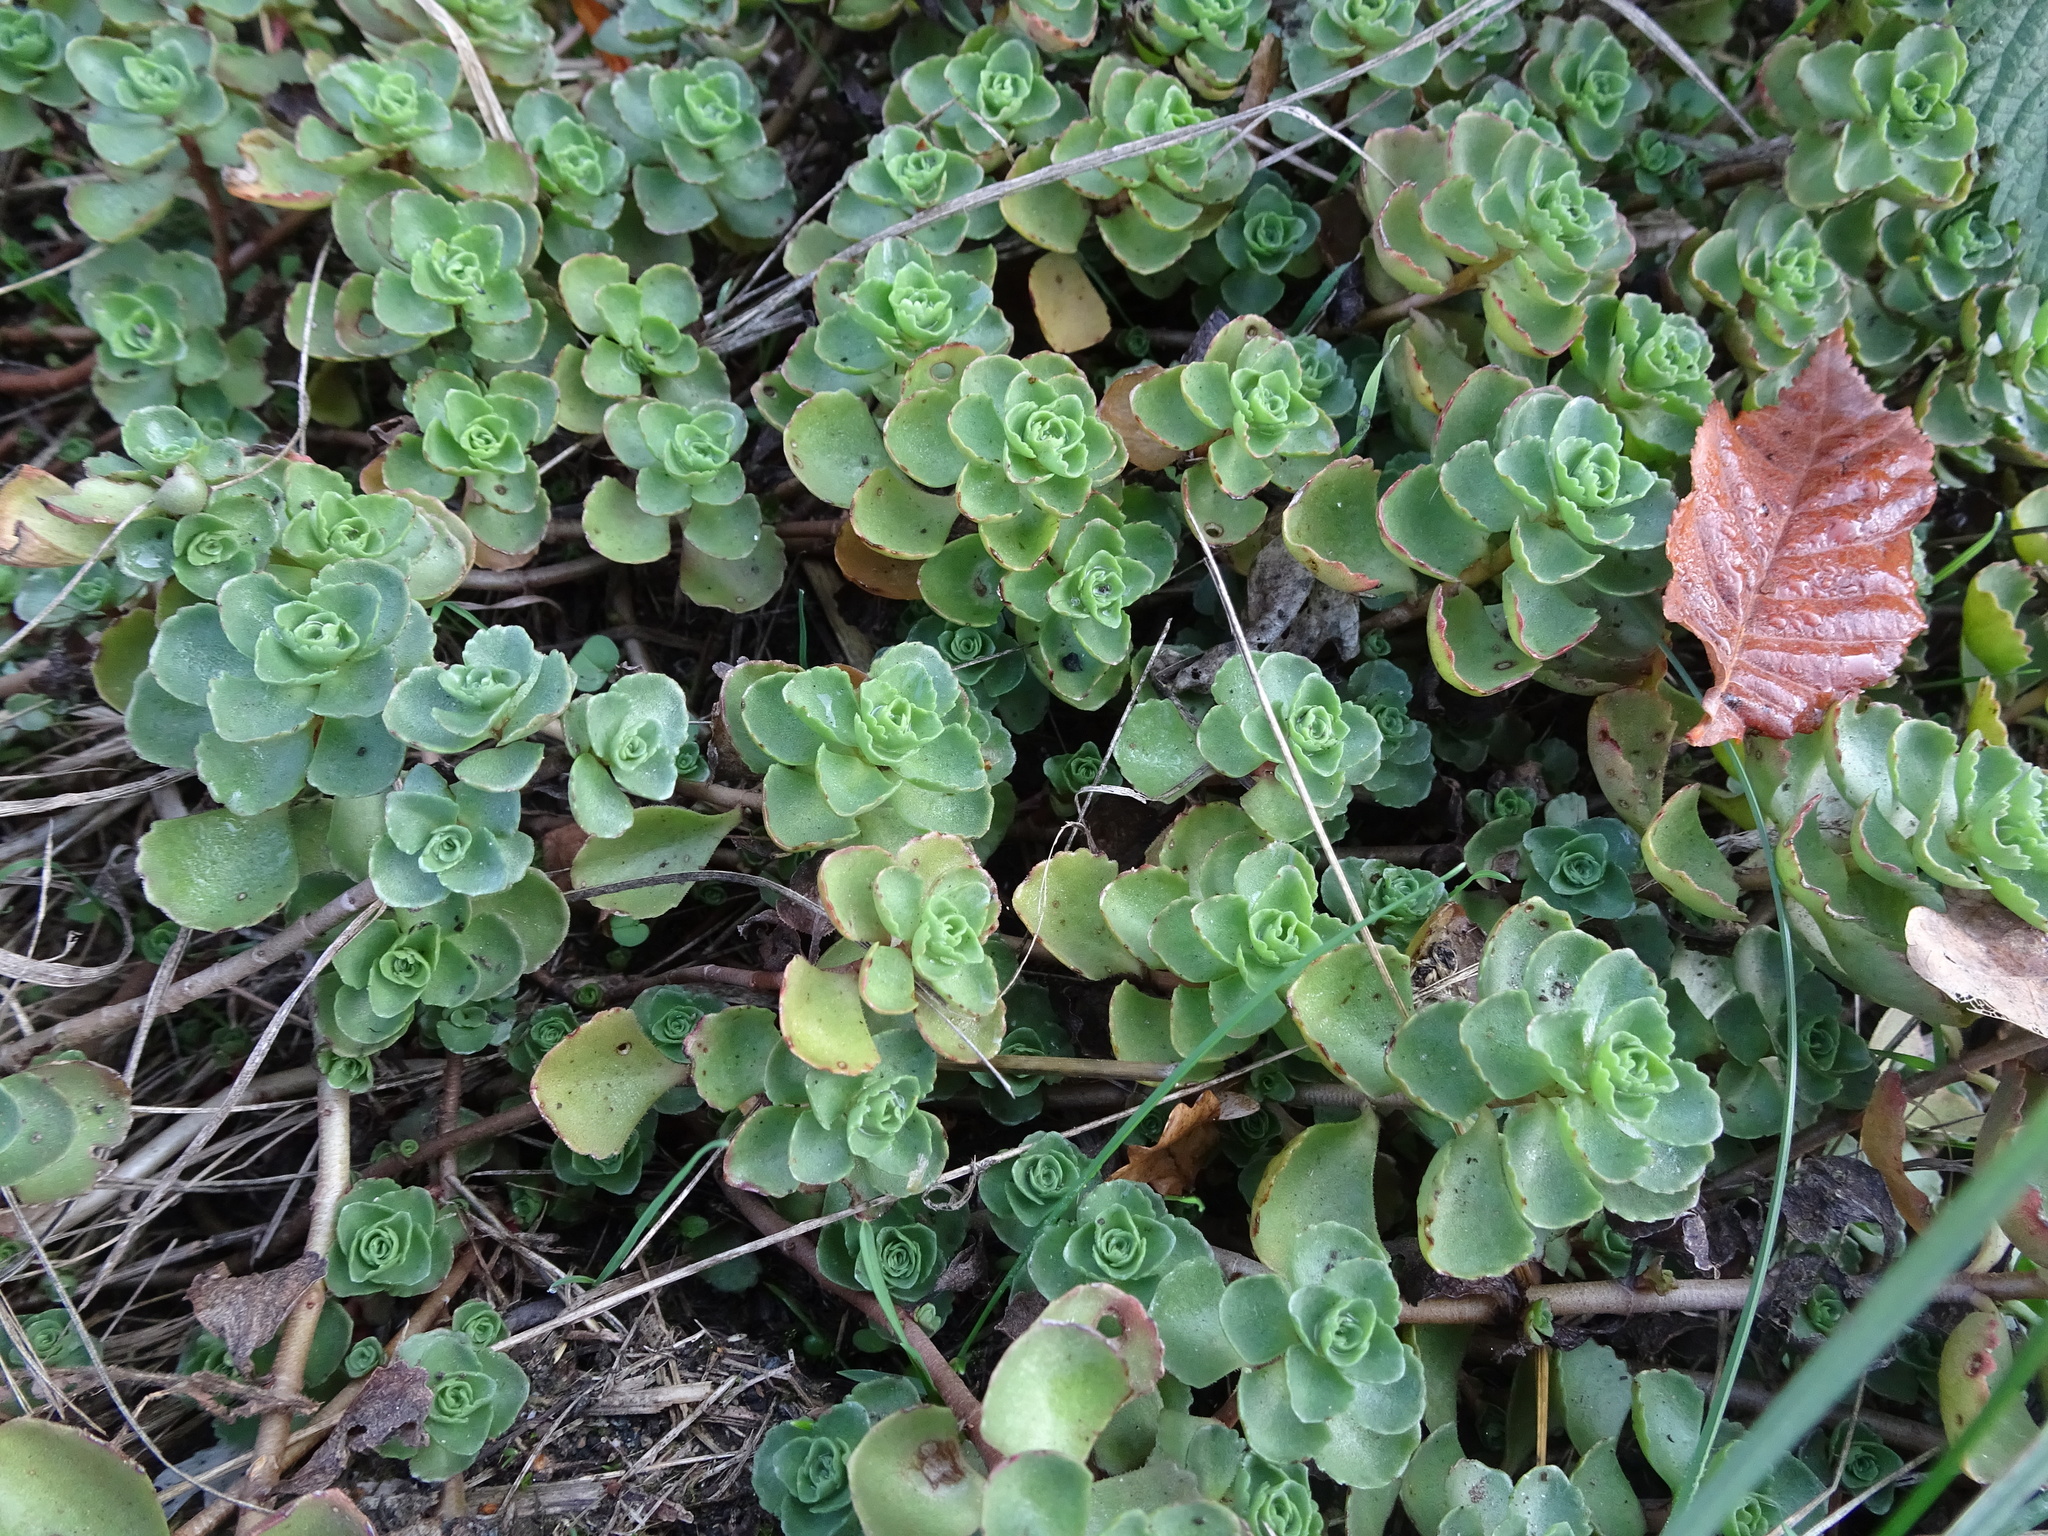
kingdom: Plantae
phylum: Tracheophyta
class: Magnoliopsida
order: Saxifragales
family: Crassulaceae
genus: Phedimus
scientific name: Phedimus spurius
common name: Caucasian stonecrop
